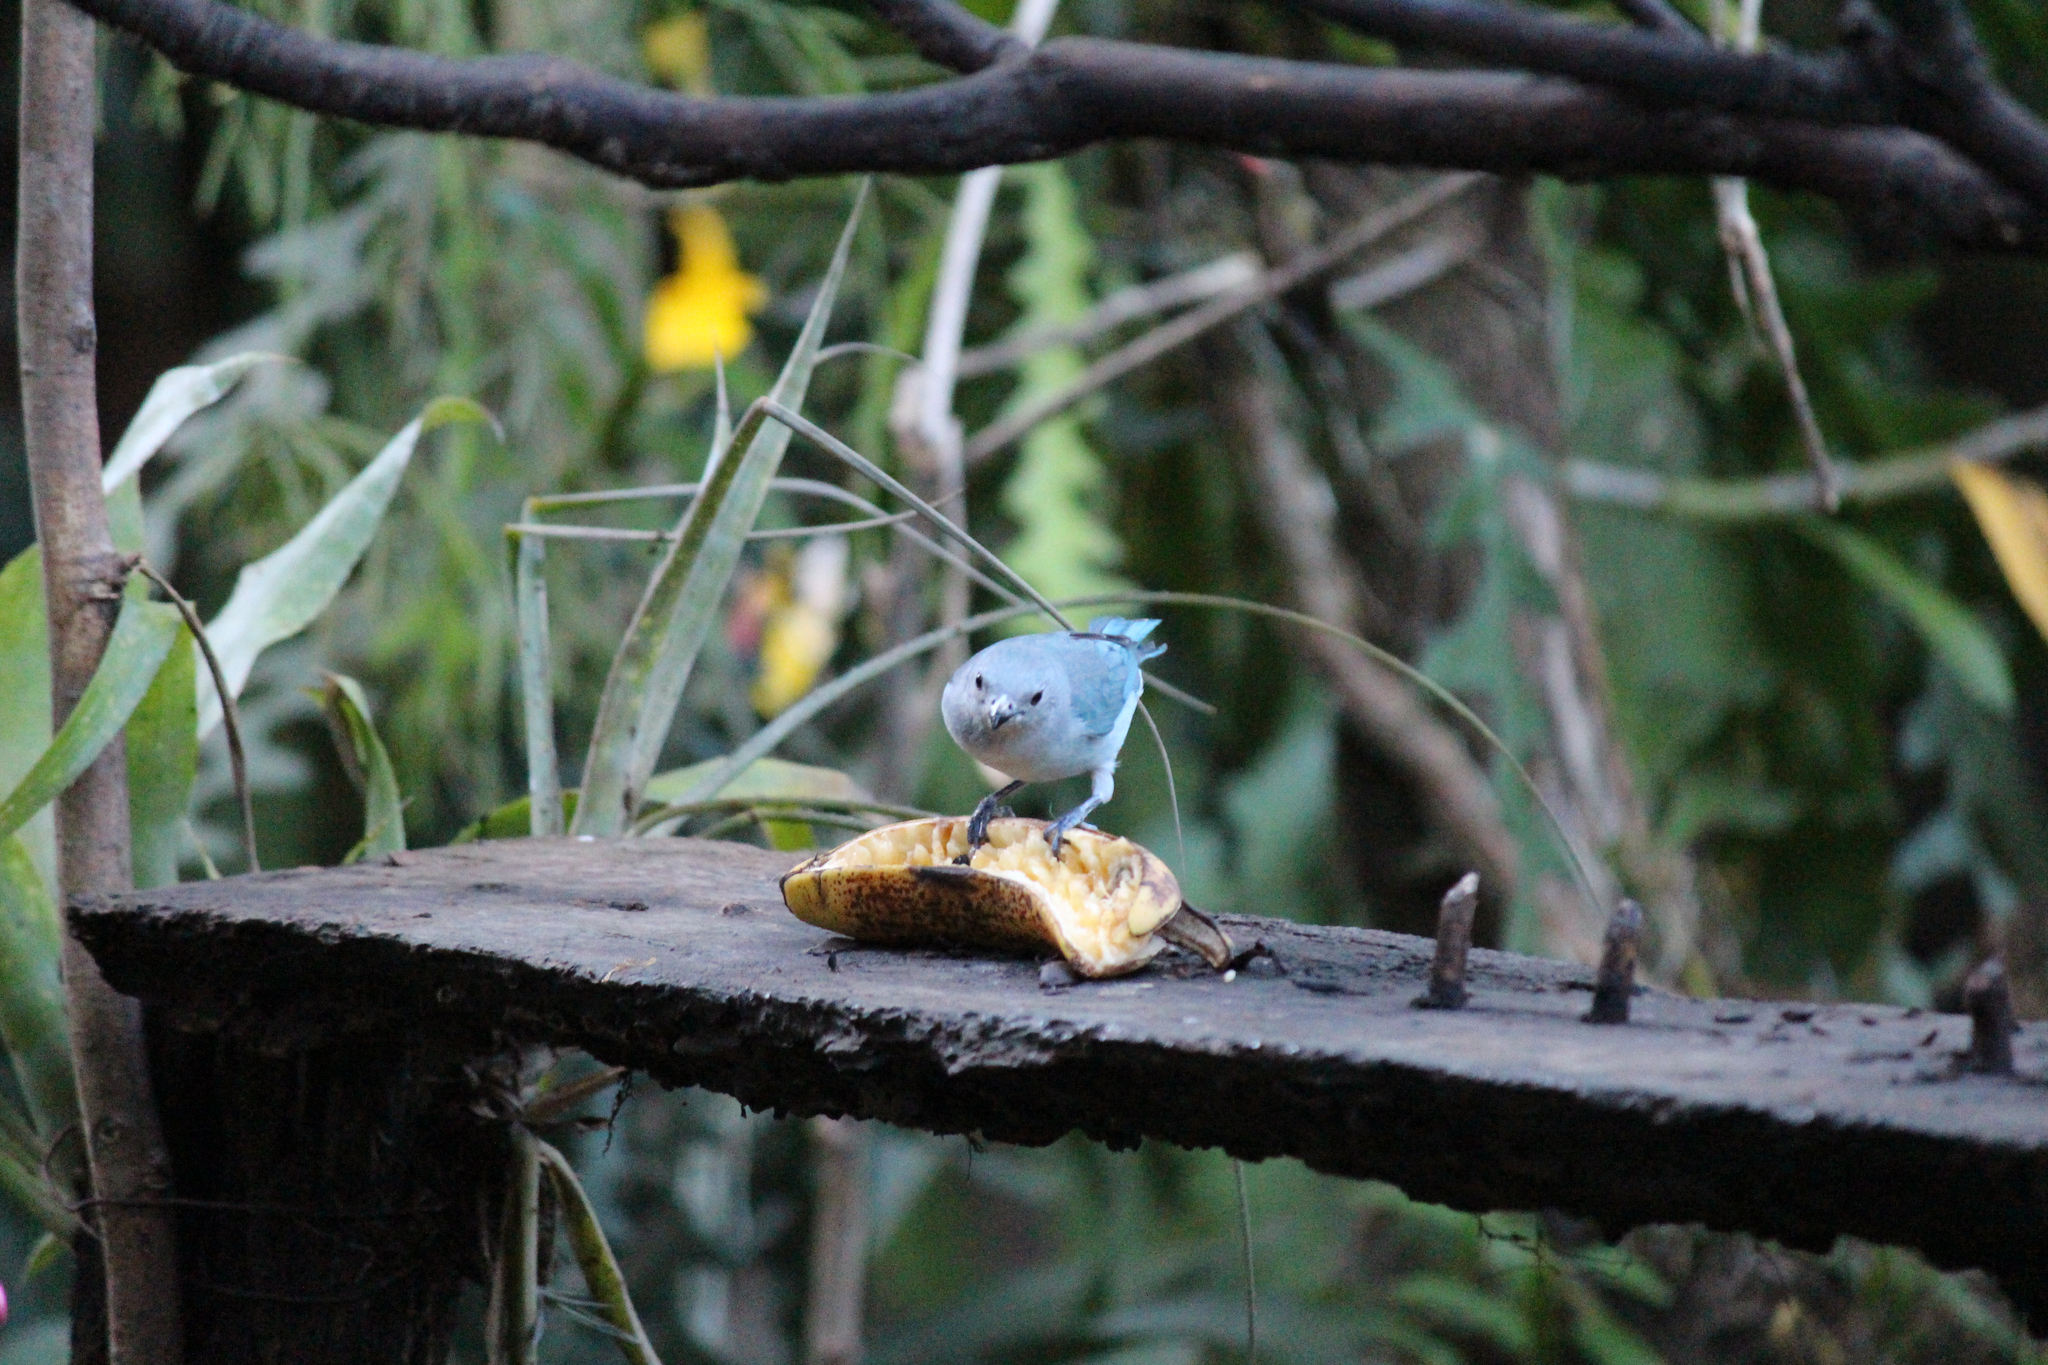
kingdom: Animalia
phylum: Chordata
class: Aves
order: Passeriformes
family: Thraupidae
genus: Thraupis
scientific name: Thraupis sayaca
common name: Sayaca tanager
